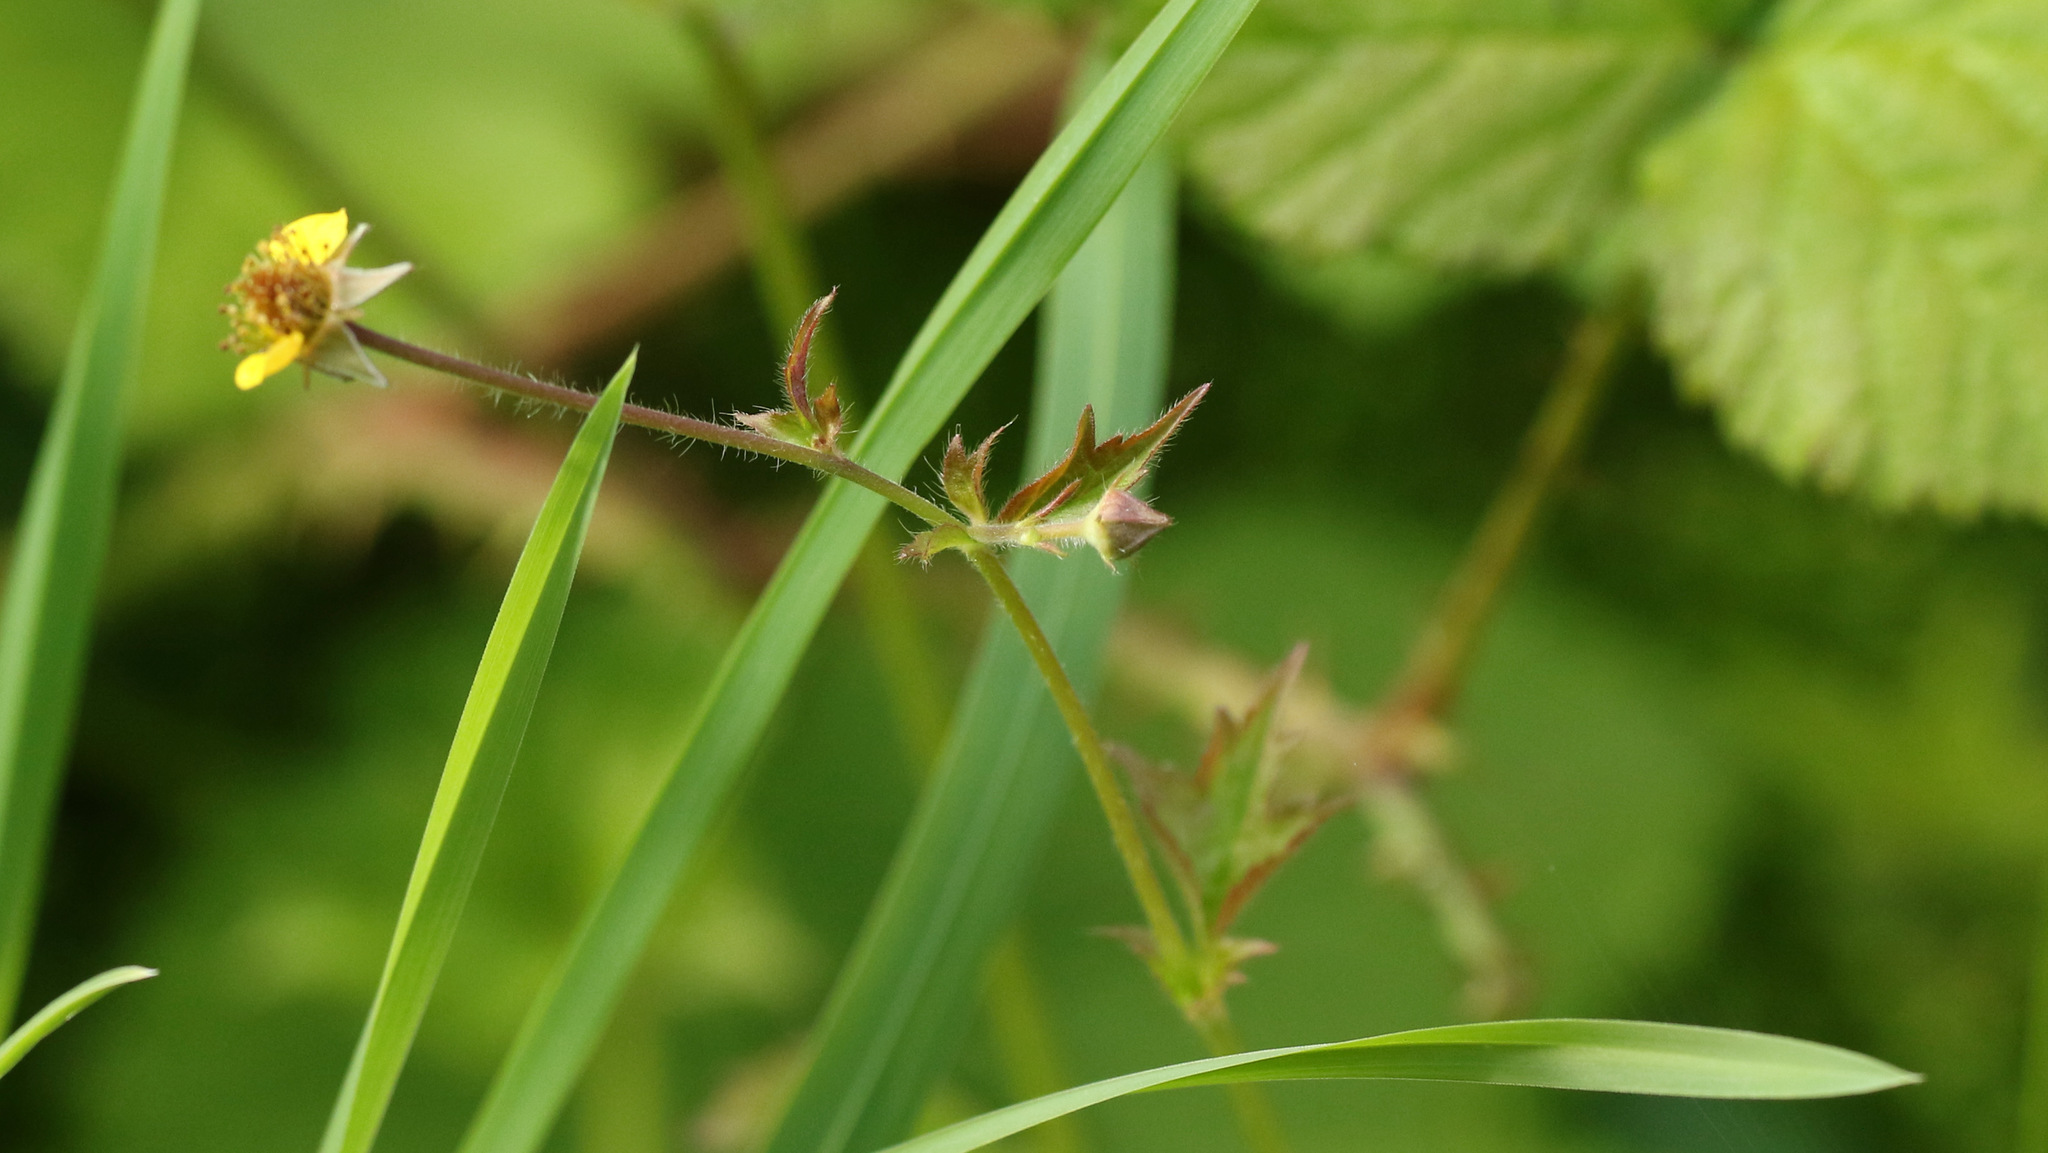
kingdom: Plantae
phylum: Tracheophyta
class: Magnoliopsida
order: Rosales
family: Rosaceae
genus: Geum
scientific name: Geum urbanum
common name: Wood avens
